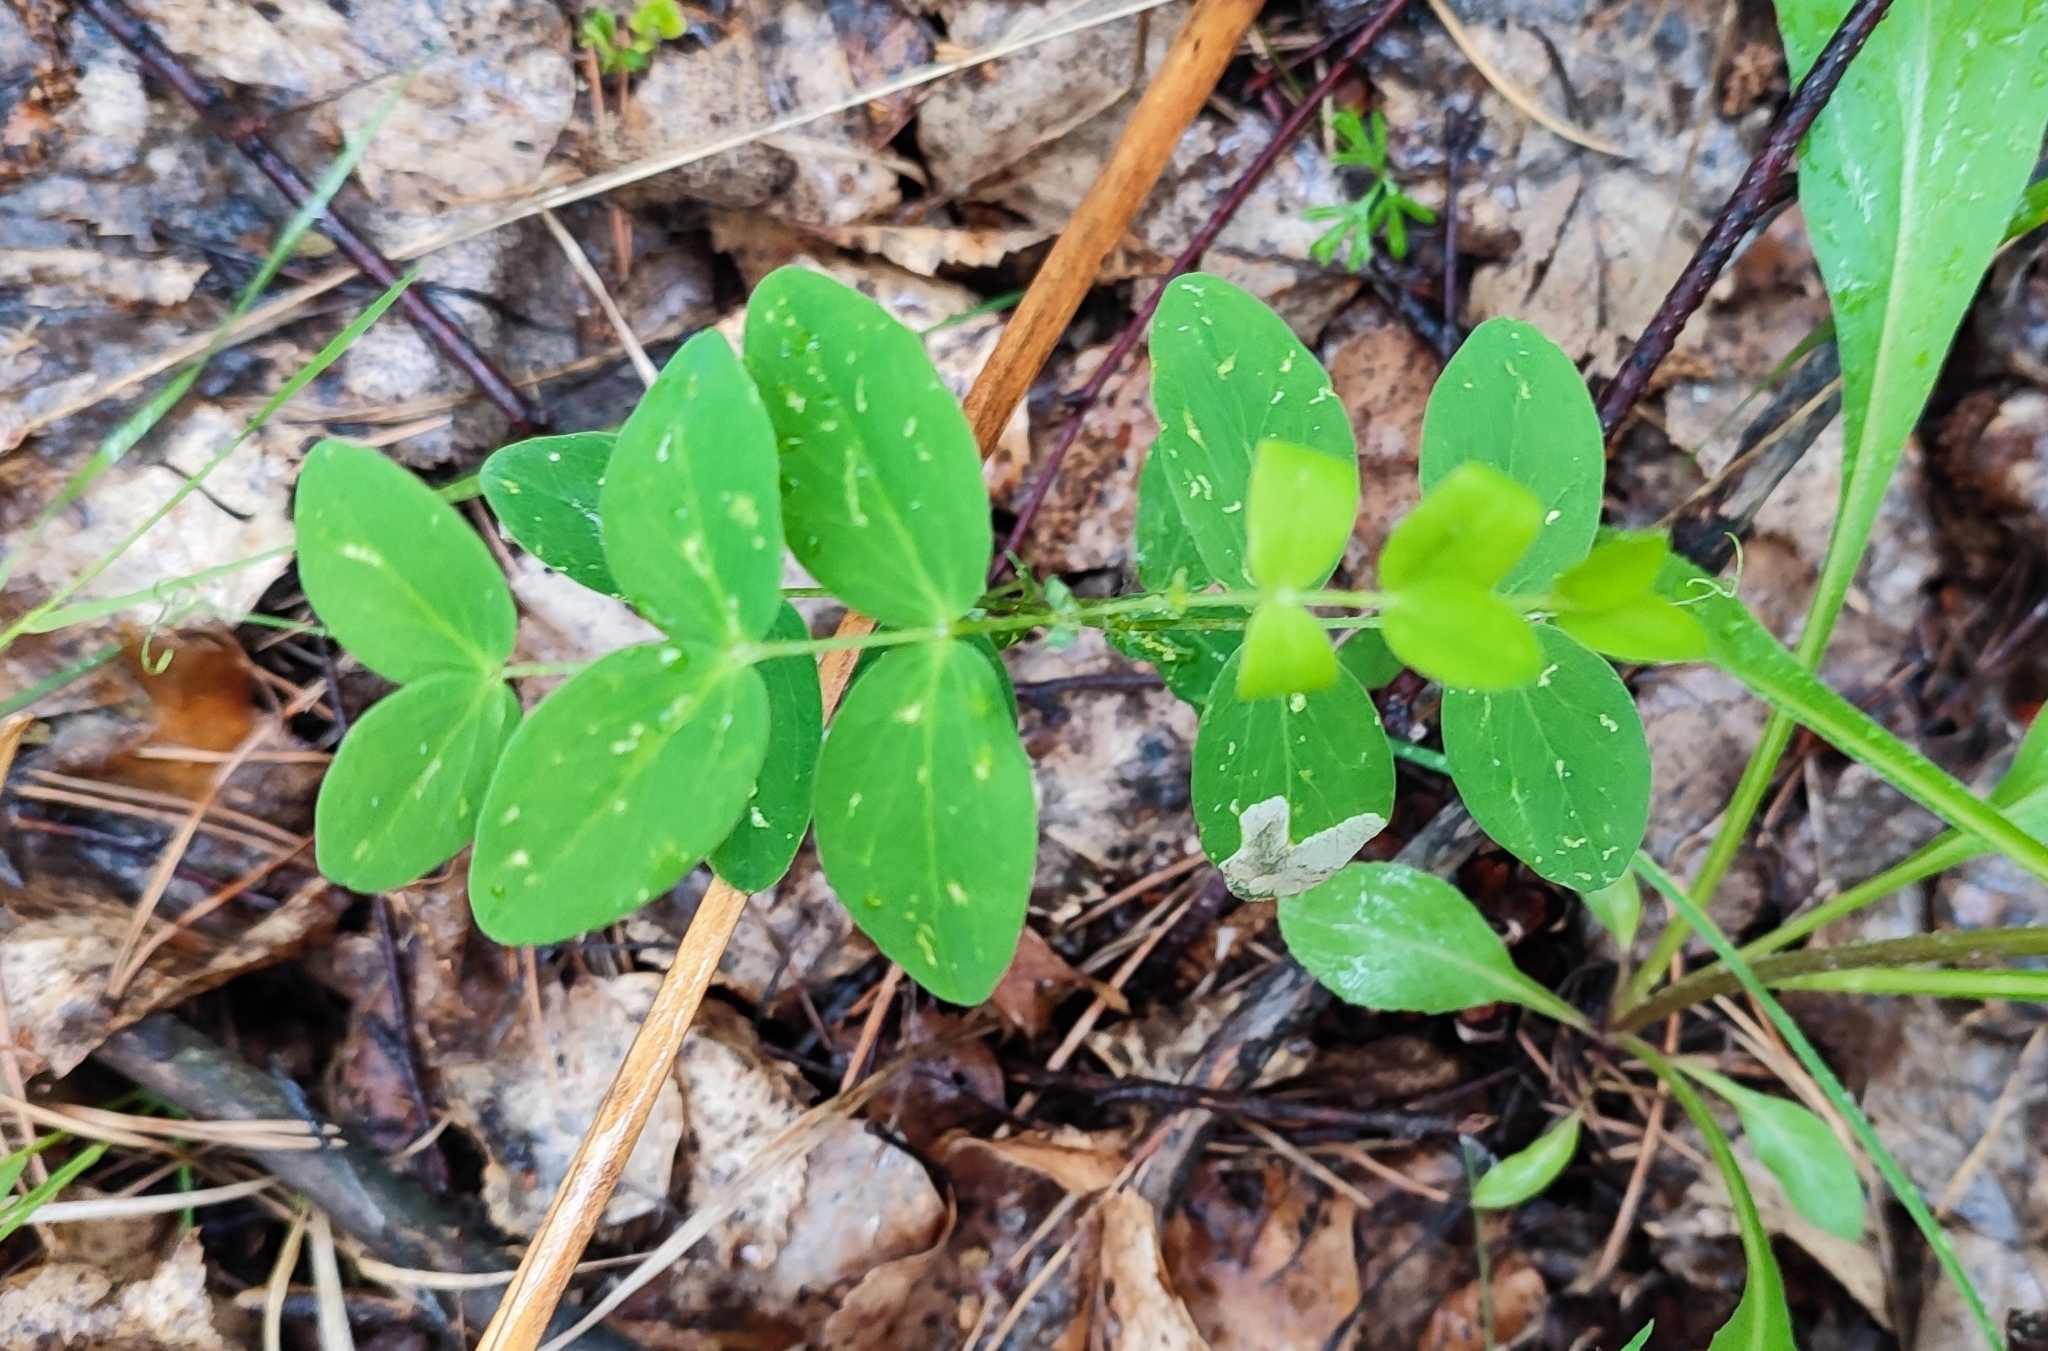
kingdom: Plantae
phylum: Tracheophyta
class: Magnoliopsida
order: Fabales
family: Fabaceae
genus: Lathyrus
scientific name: Lathyrus pisiformis
